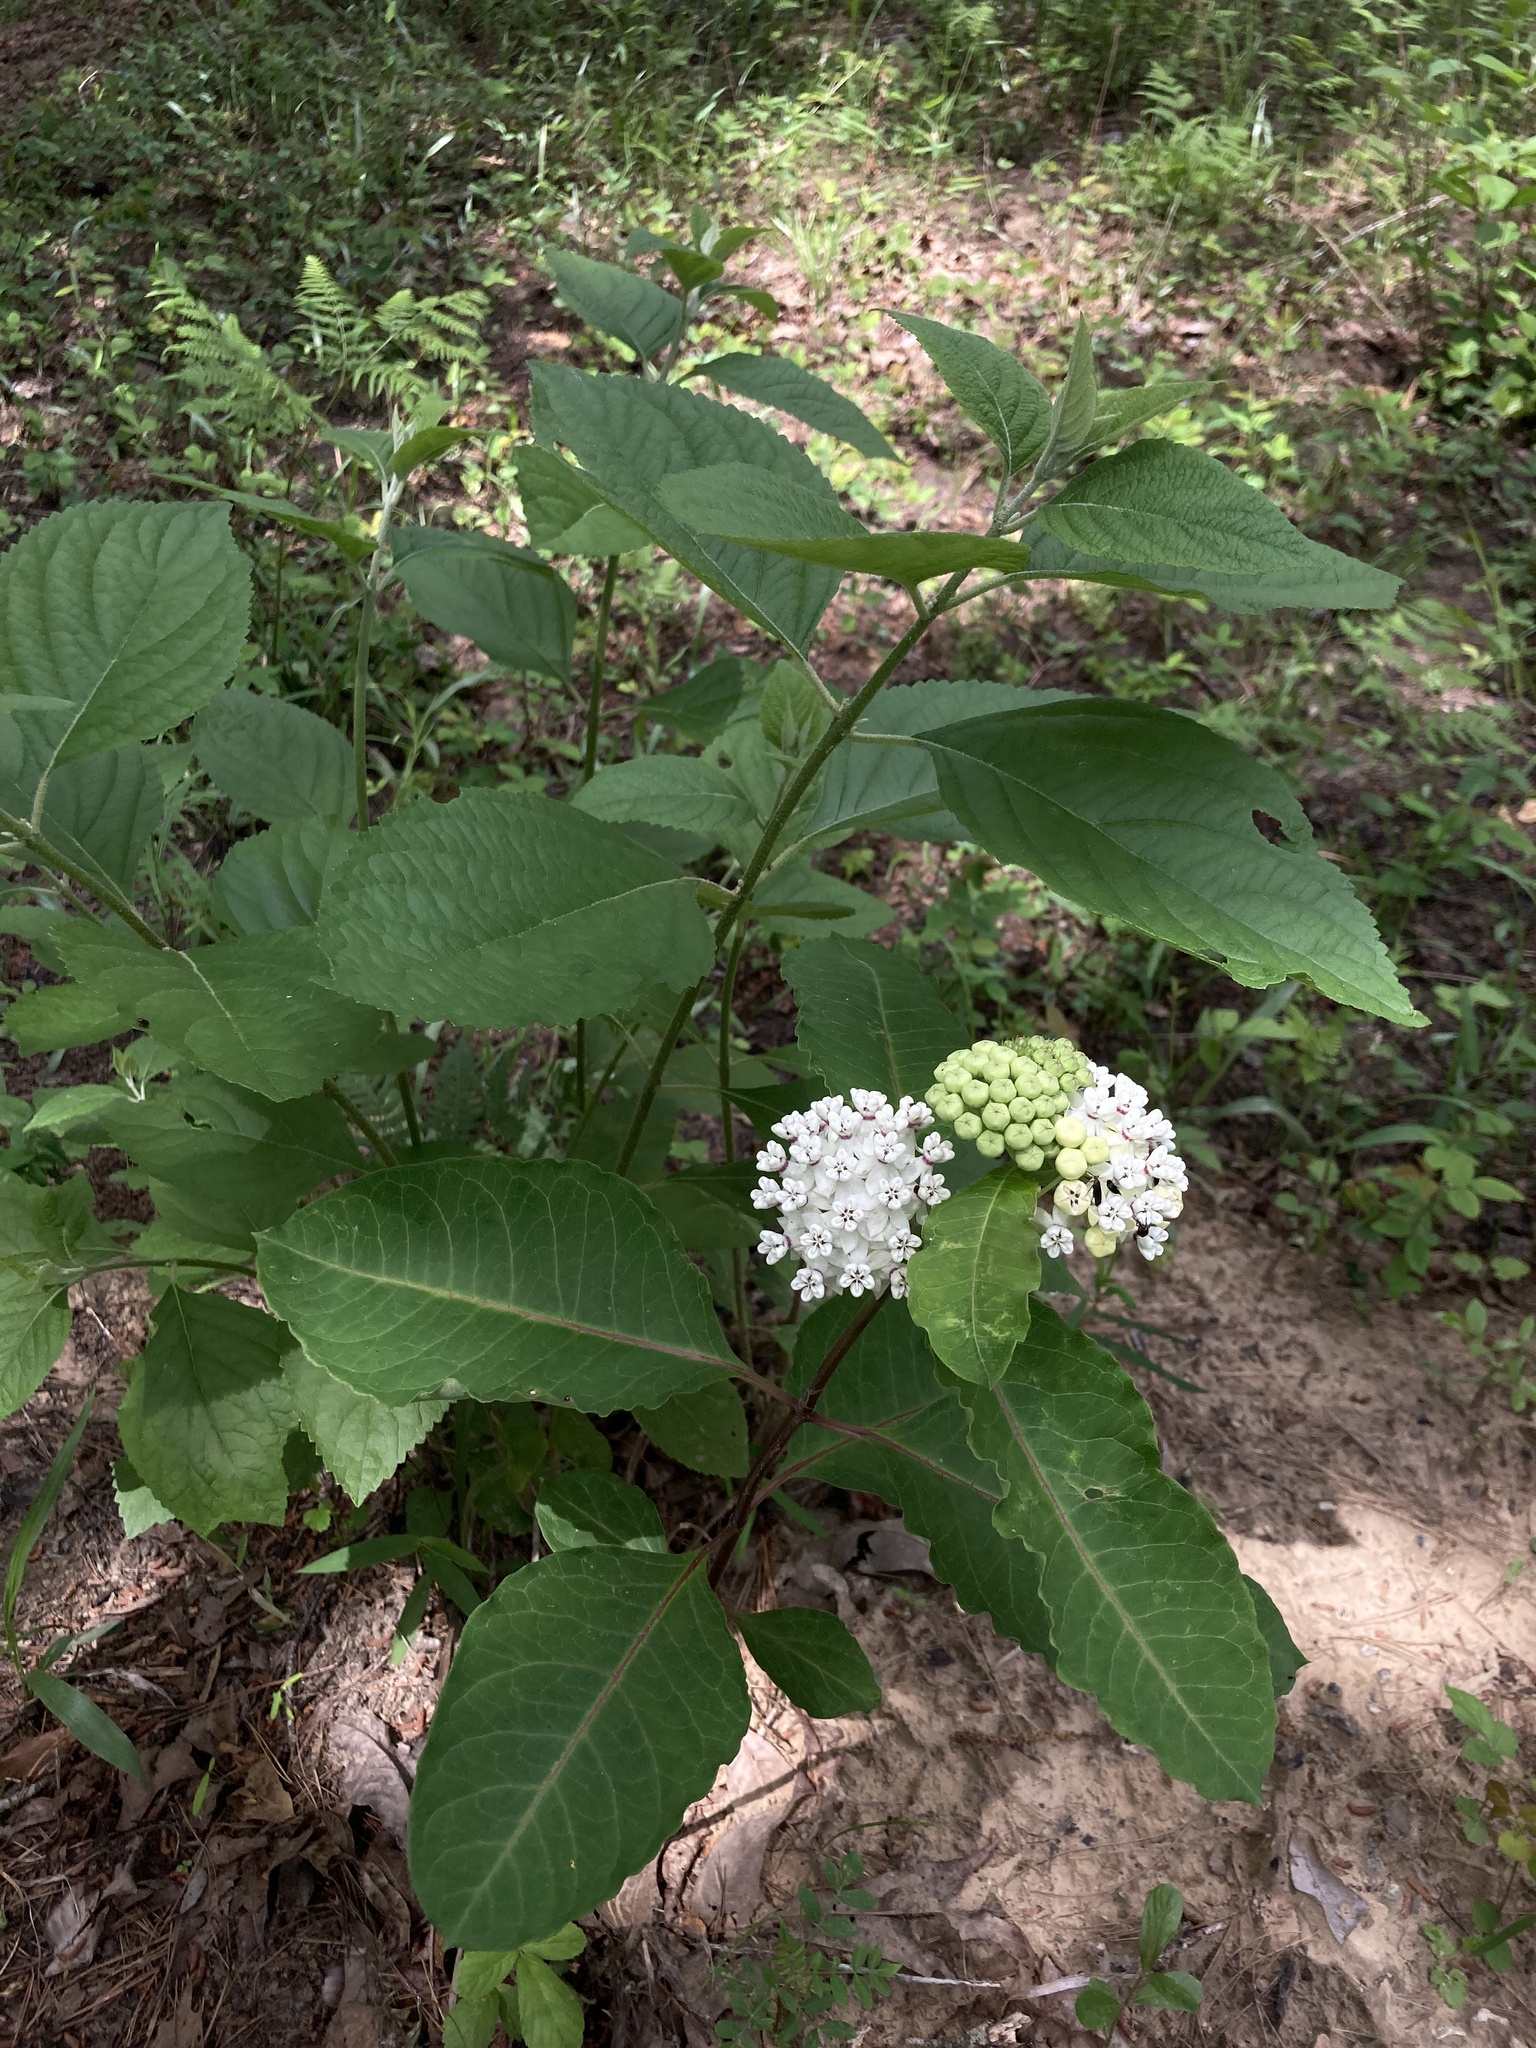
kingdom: Plantae
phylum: Tracheophyta
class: Magnoliopsida
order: Gentianales
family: Apocynaceae
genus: Asclepias
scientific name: Asclepias variegata
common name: Variegated milkweed
